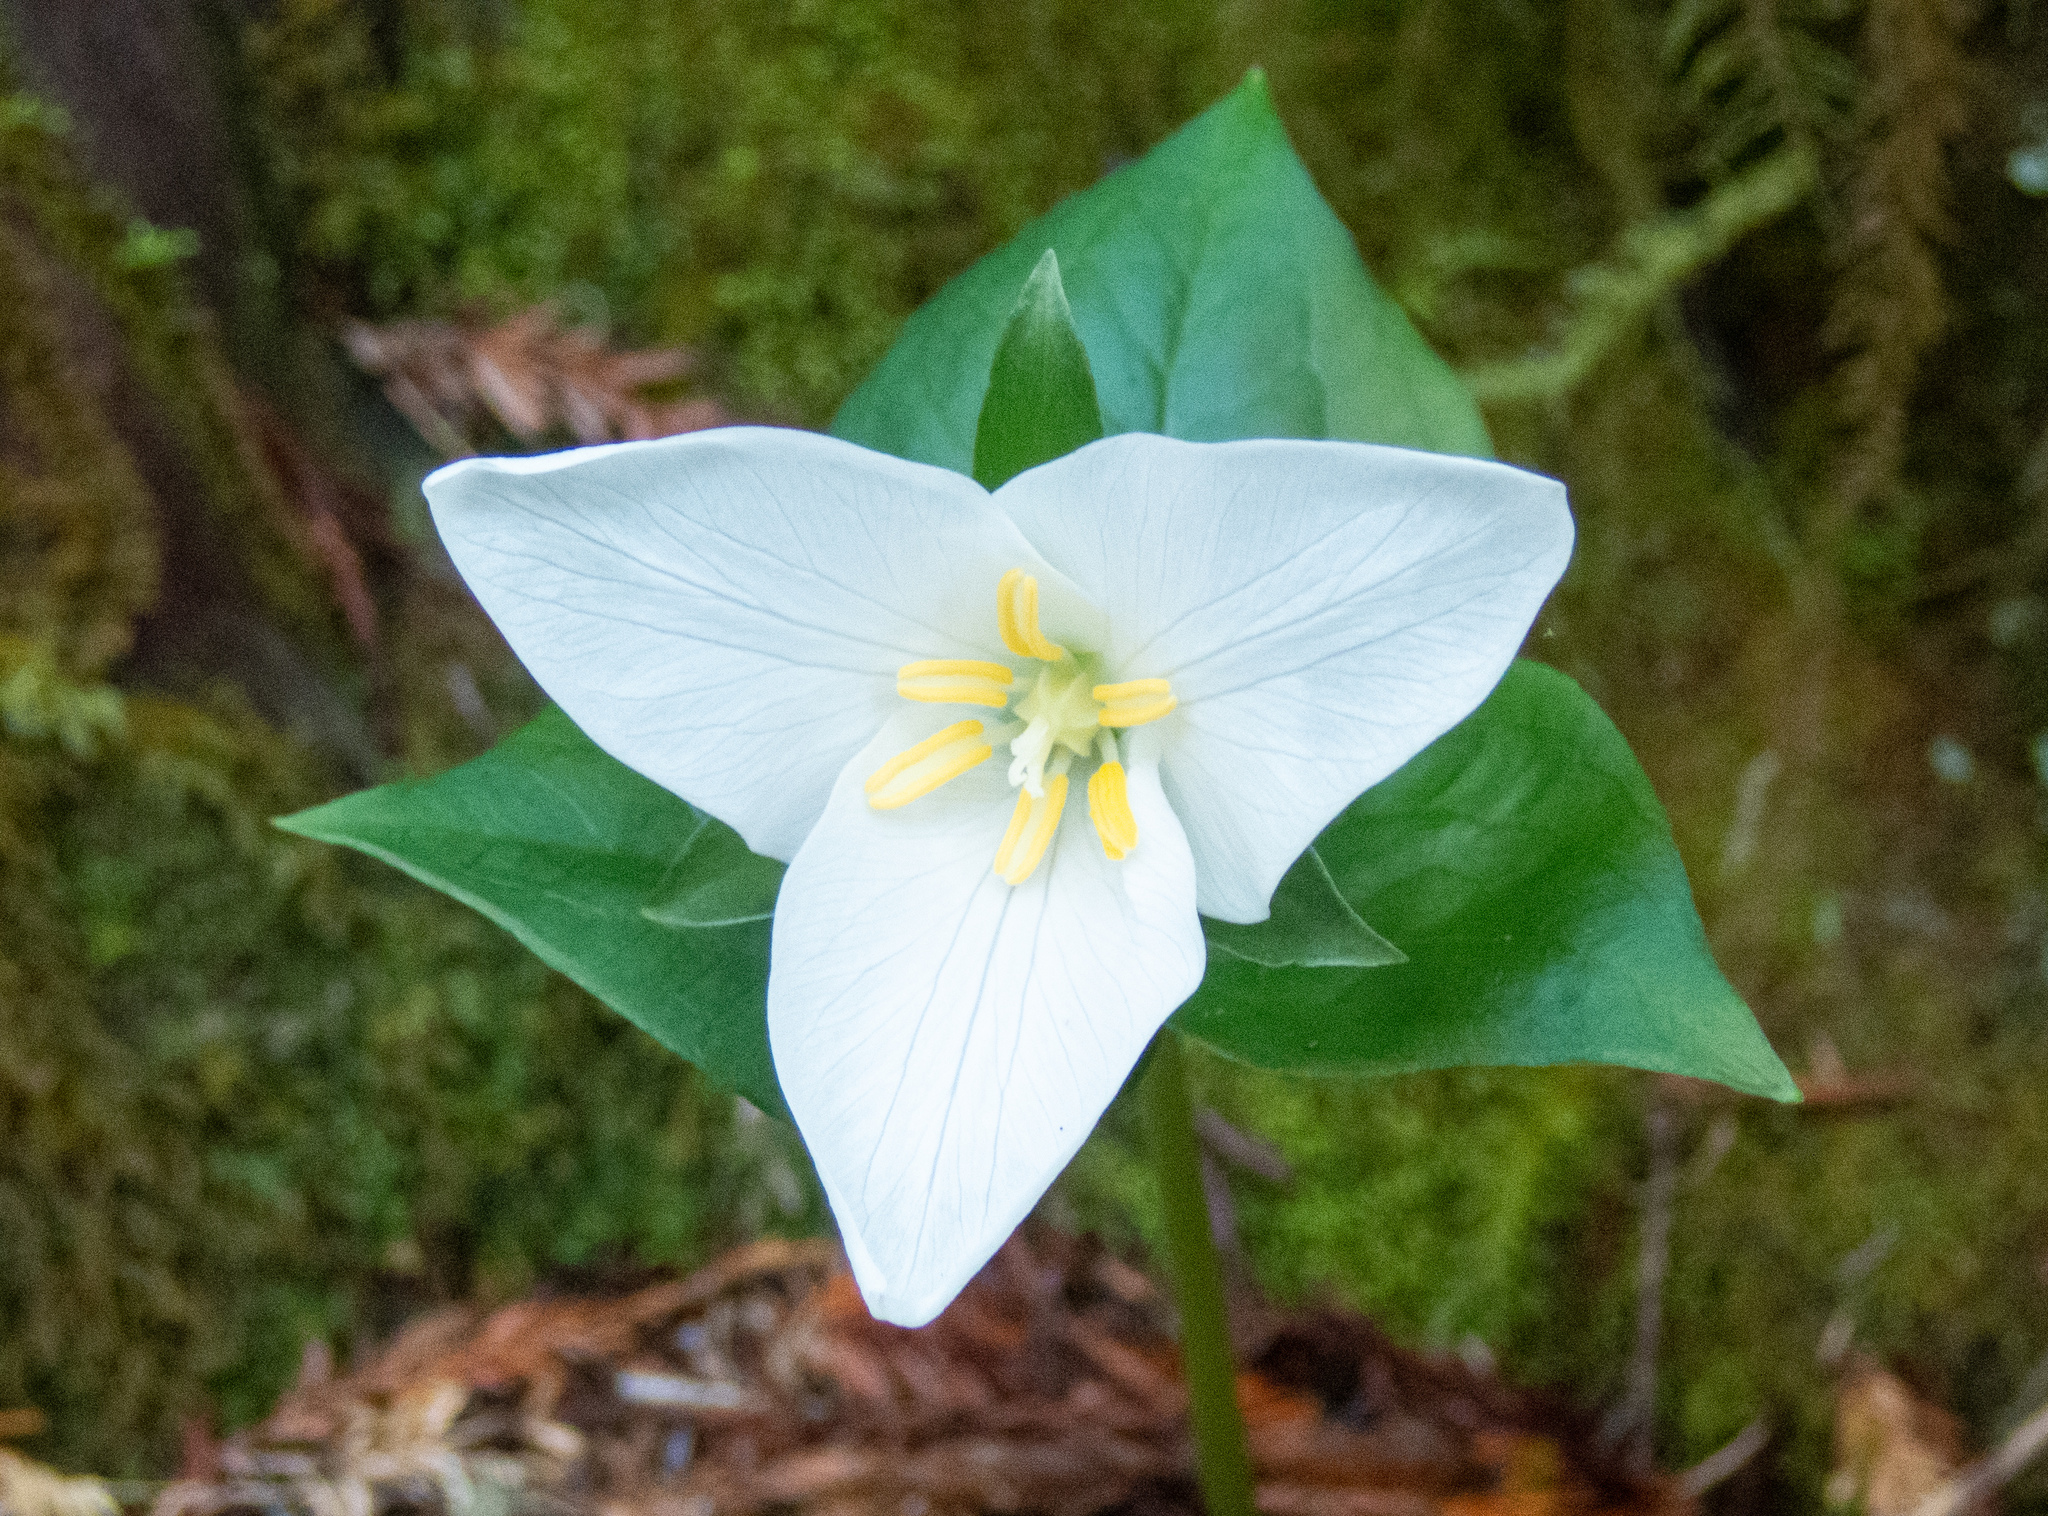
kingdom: Plantae
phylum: Tracheophyta
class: Liliopsida
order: Liliales
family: Melanthiaceae
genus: Trillium
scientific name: Trillium ovatum
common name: Pacific trillium
